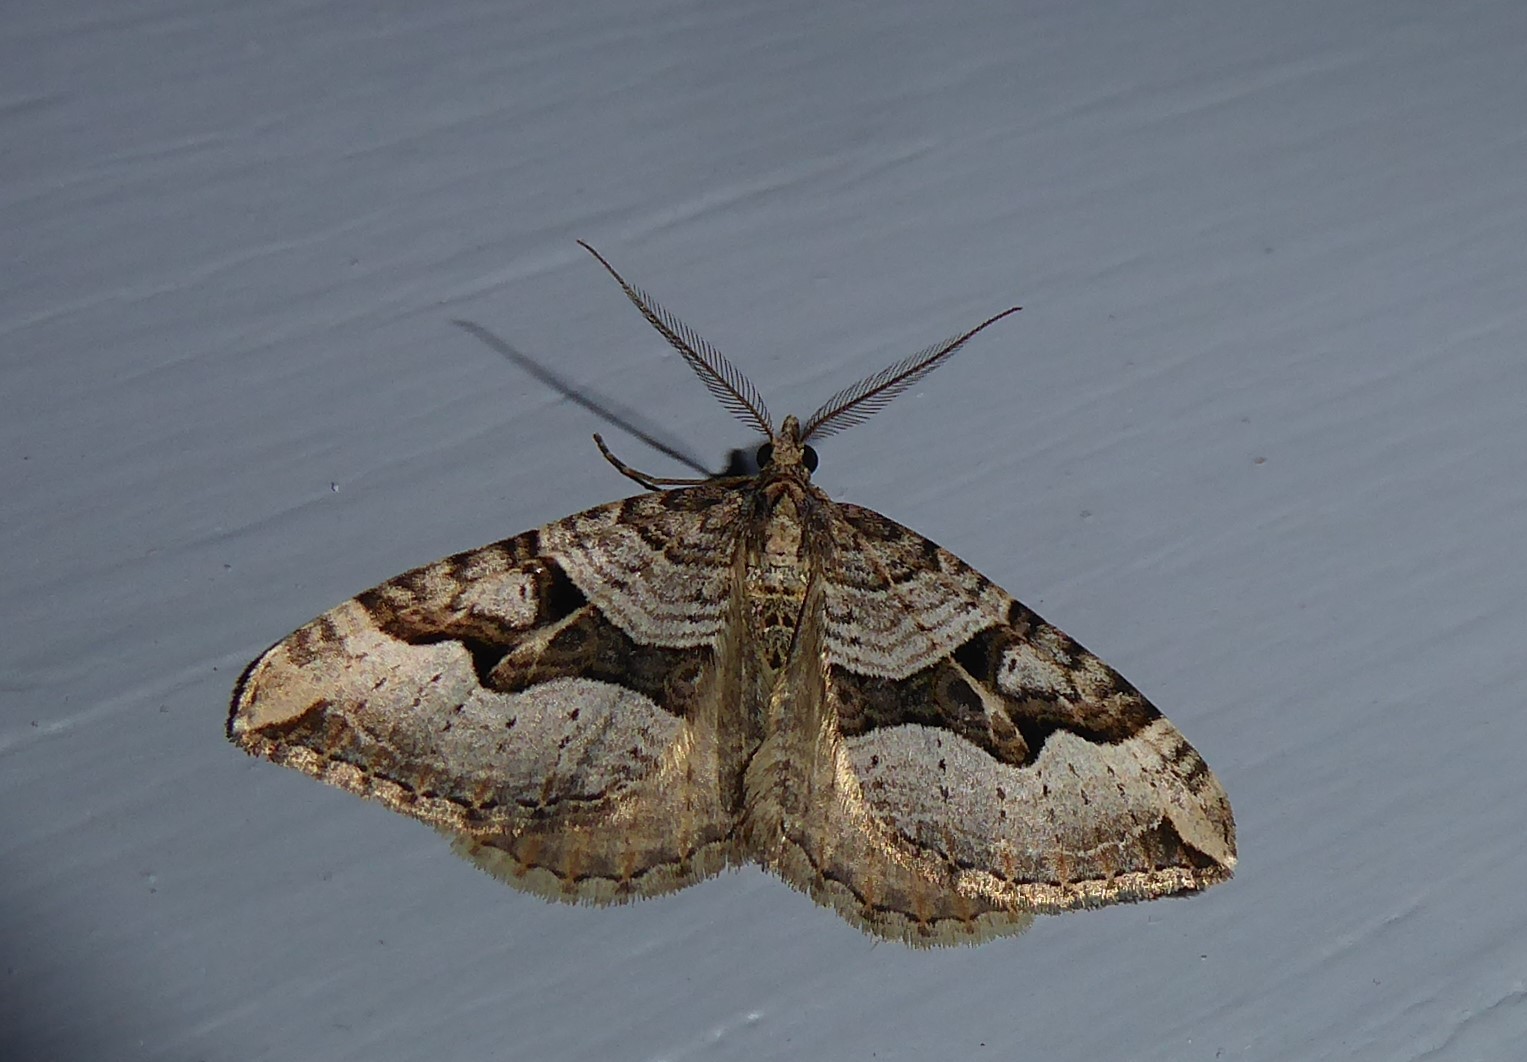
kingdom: Animalia
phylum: Arthropoda
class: Insecta
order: Lepidoptera
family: Geometridae
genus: Xanthorhoe
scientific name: Xanthorhoe semifissata
